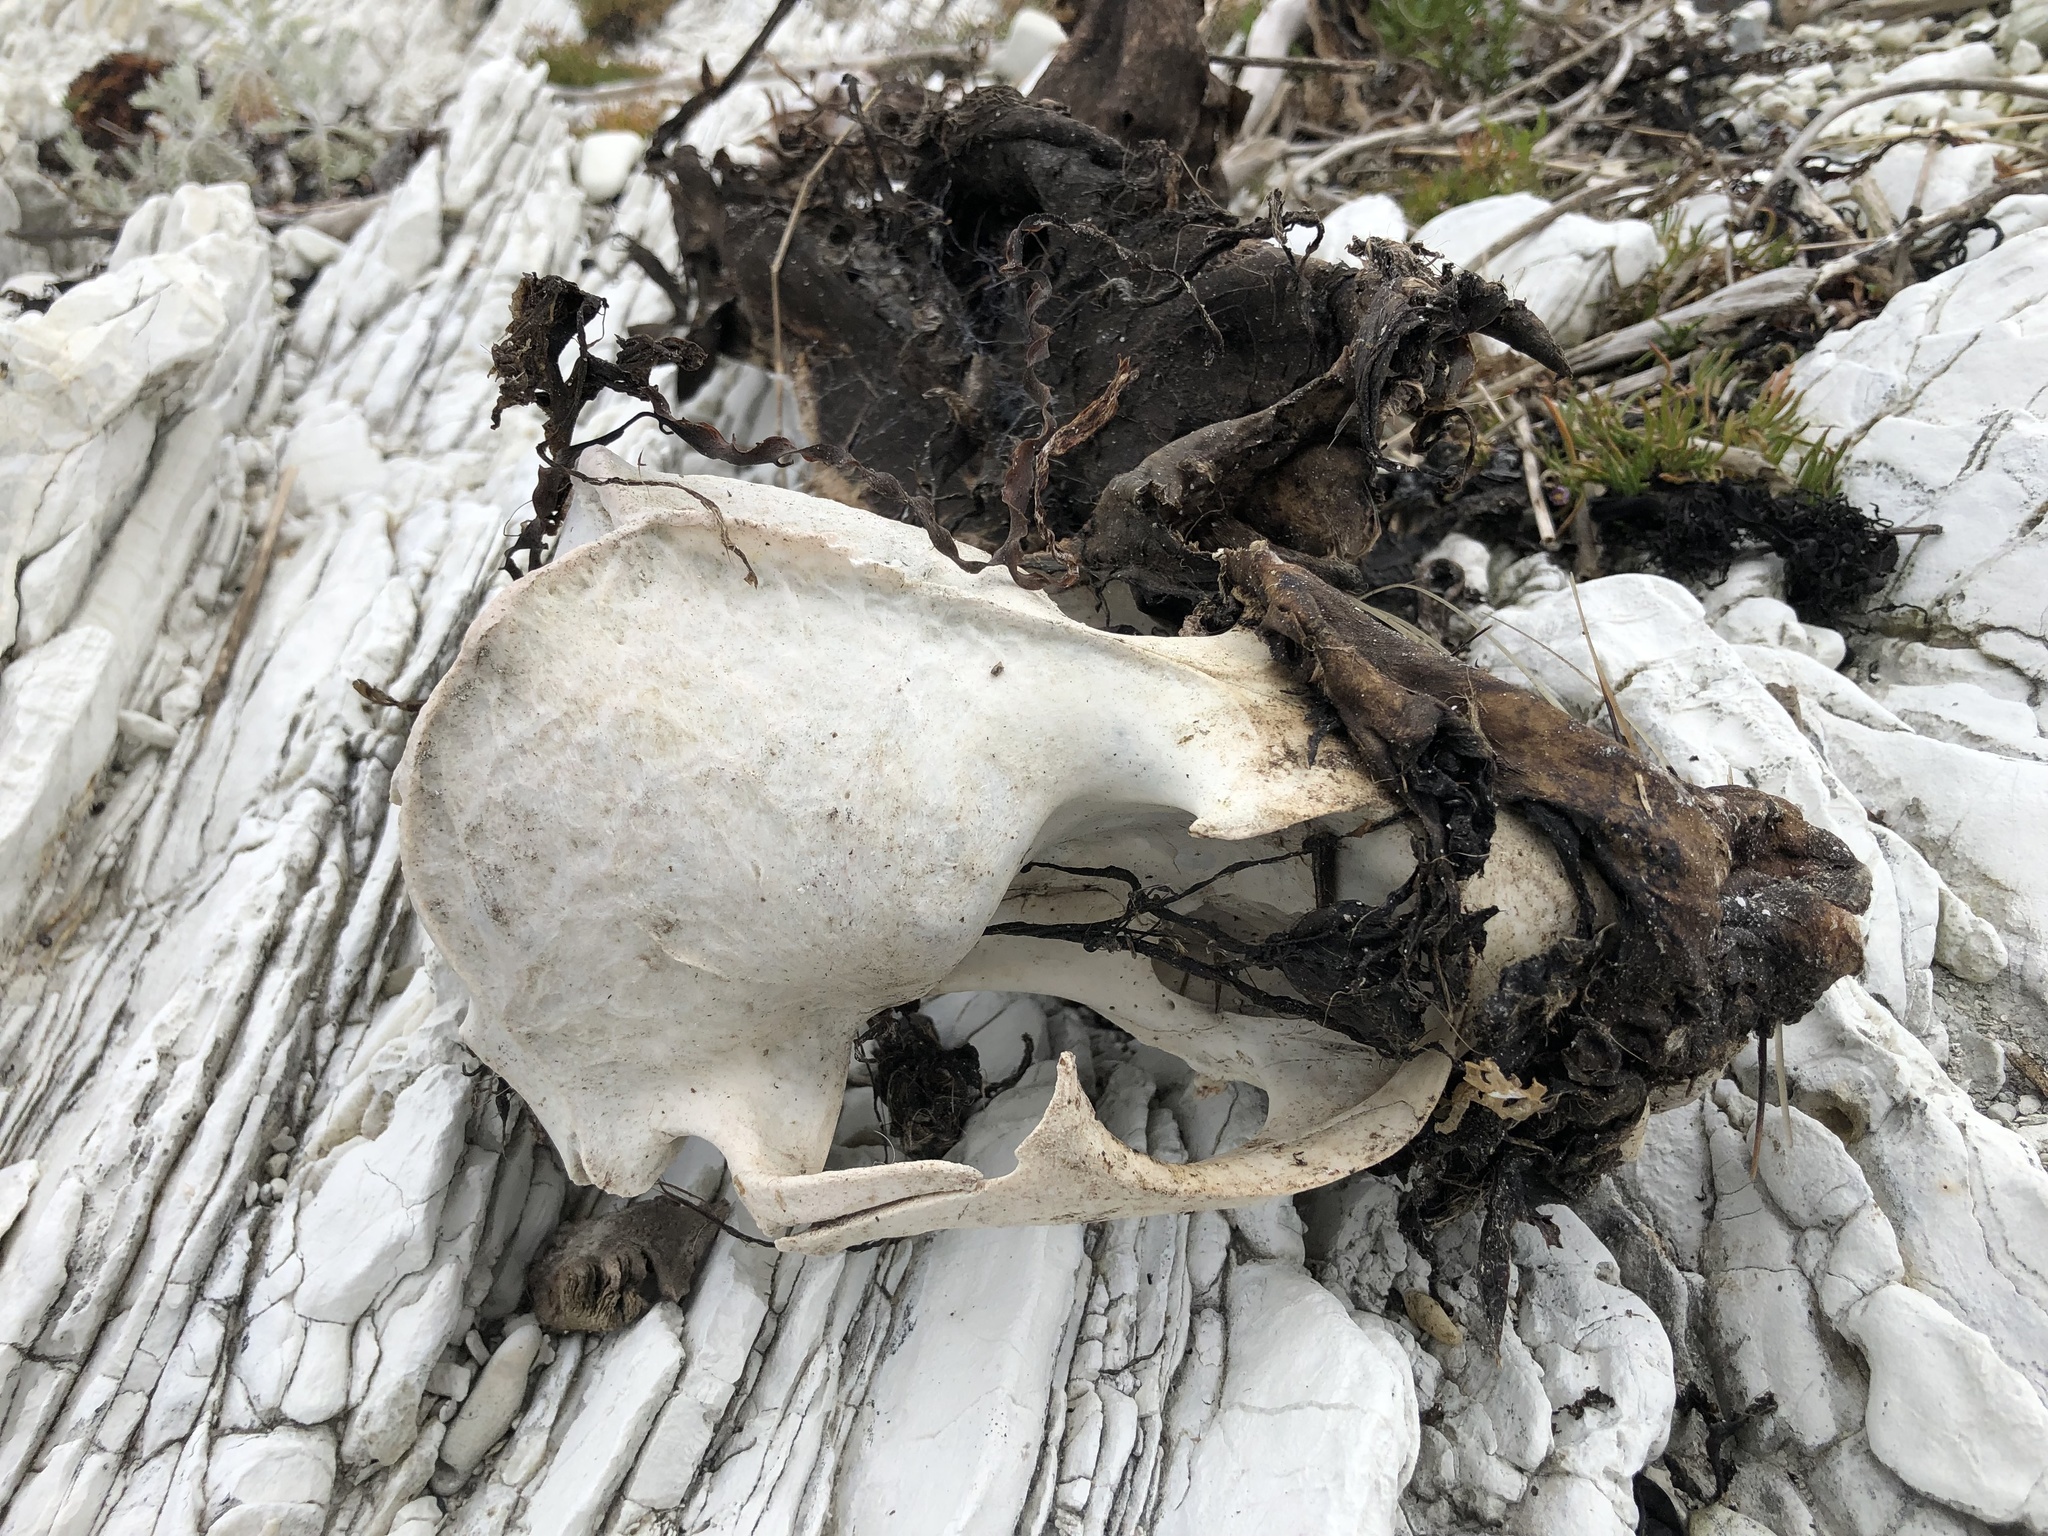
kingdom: Animalia
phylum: Chordata
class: Mammalia
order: Carnivora
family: Otariidae
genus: Arctocephalus
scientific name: Arctocephalus forsteri
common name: New zealand fur seal
